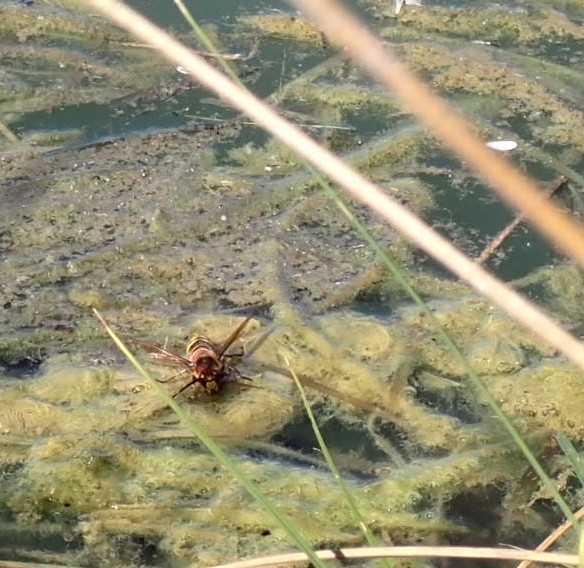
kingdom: Animalia
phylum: Arthropoda
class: Insecta
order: Hymenoptera
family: Vespidae
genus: Vespa
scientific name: Vespa crabro
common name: Hornet
